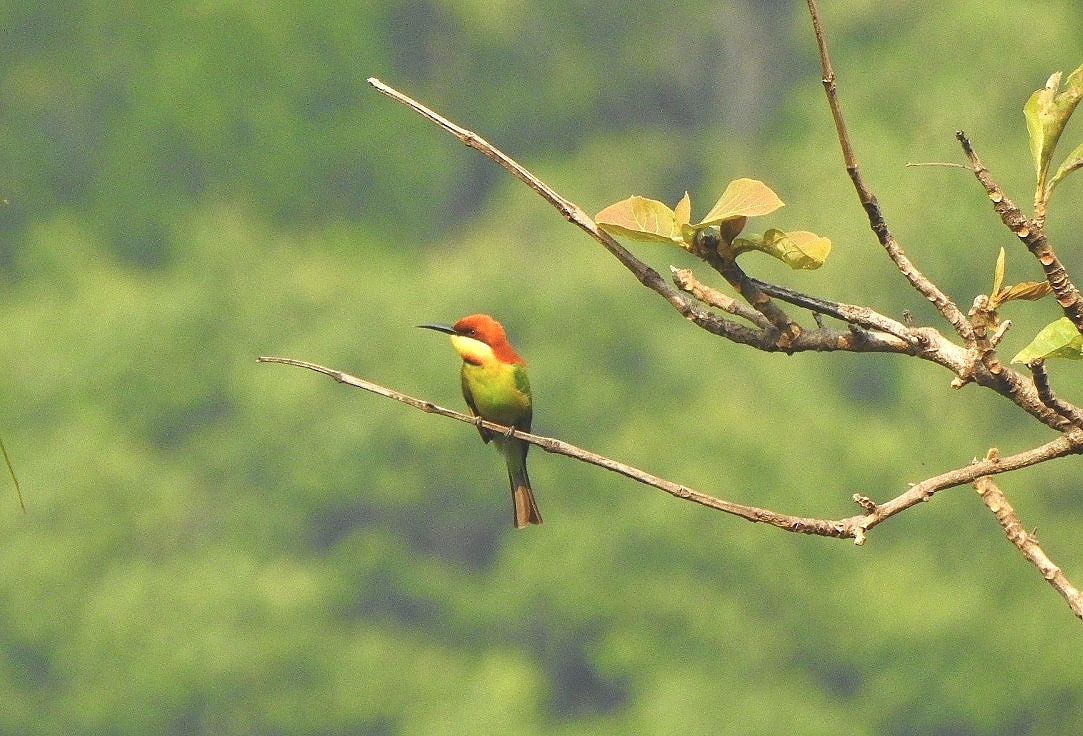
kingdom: Animalia
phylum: Chordata
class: Aves
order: Coraciiformes
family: Meropidae
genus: Merops
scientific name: Merops leschenaulti
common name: Chestnut-headed bee-eater
